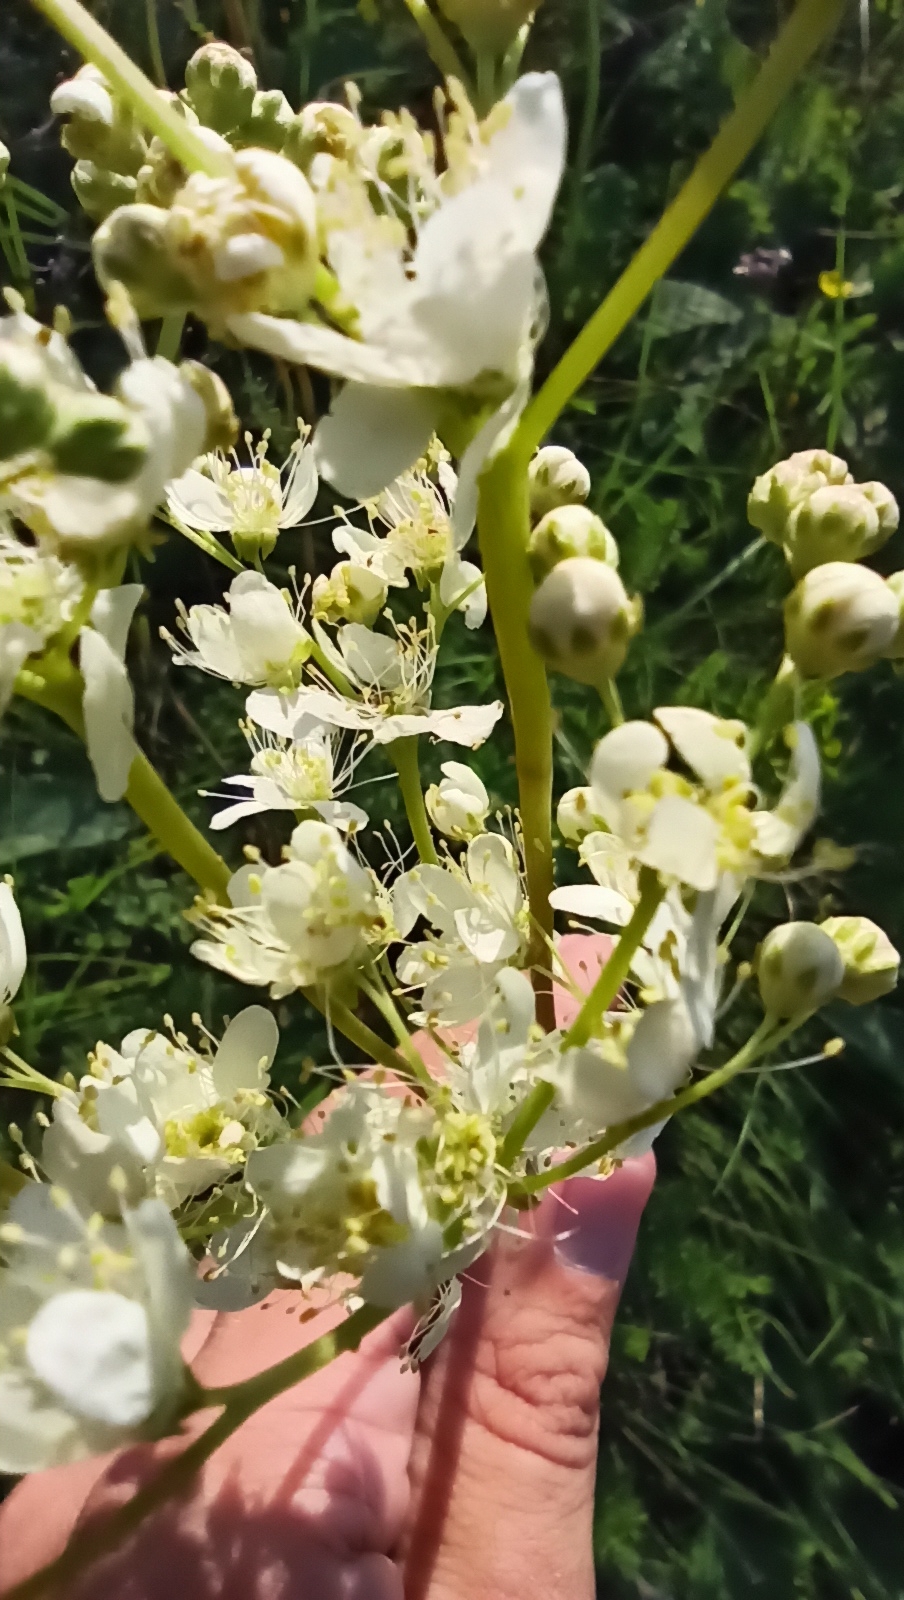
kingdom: Plantae
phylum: Tracheophyta
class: Magnoliopsida
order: Rosales
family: Rosaceae
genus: Filipendula
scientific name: Filipendula vulgaris
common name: Dropwort
